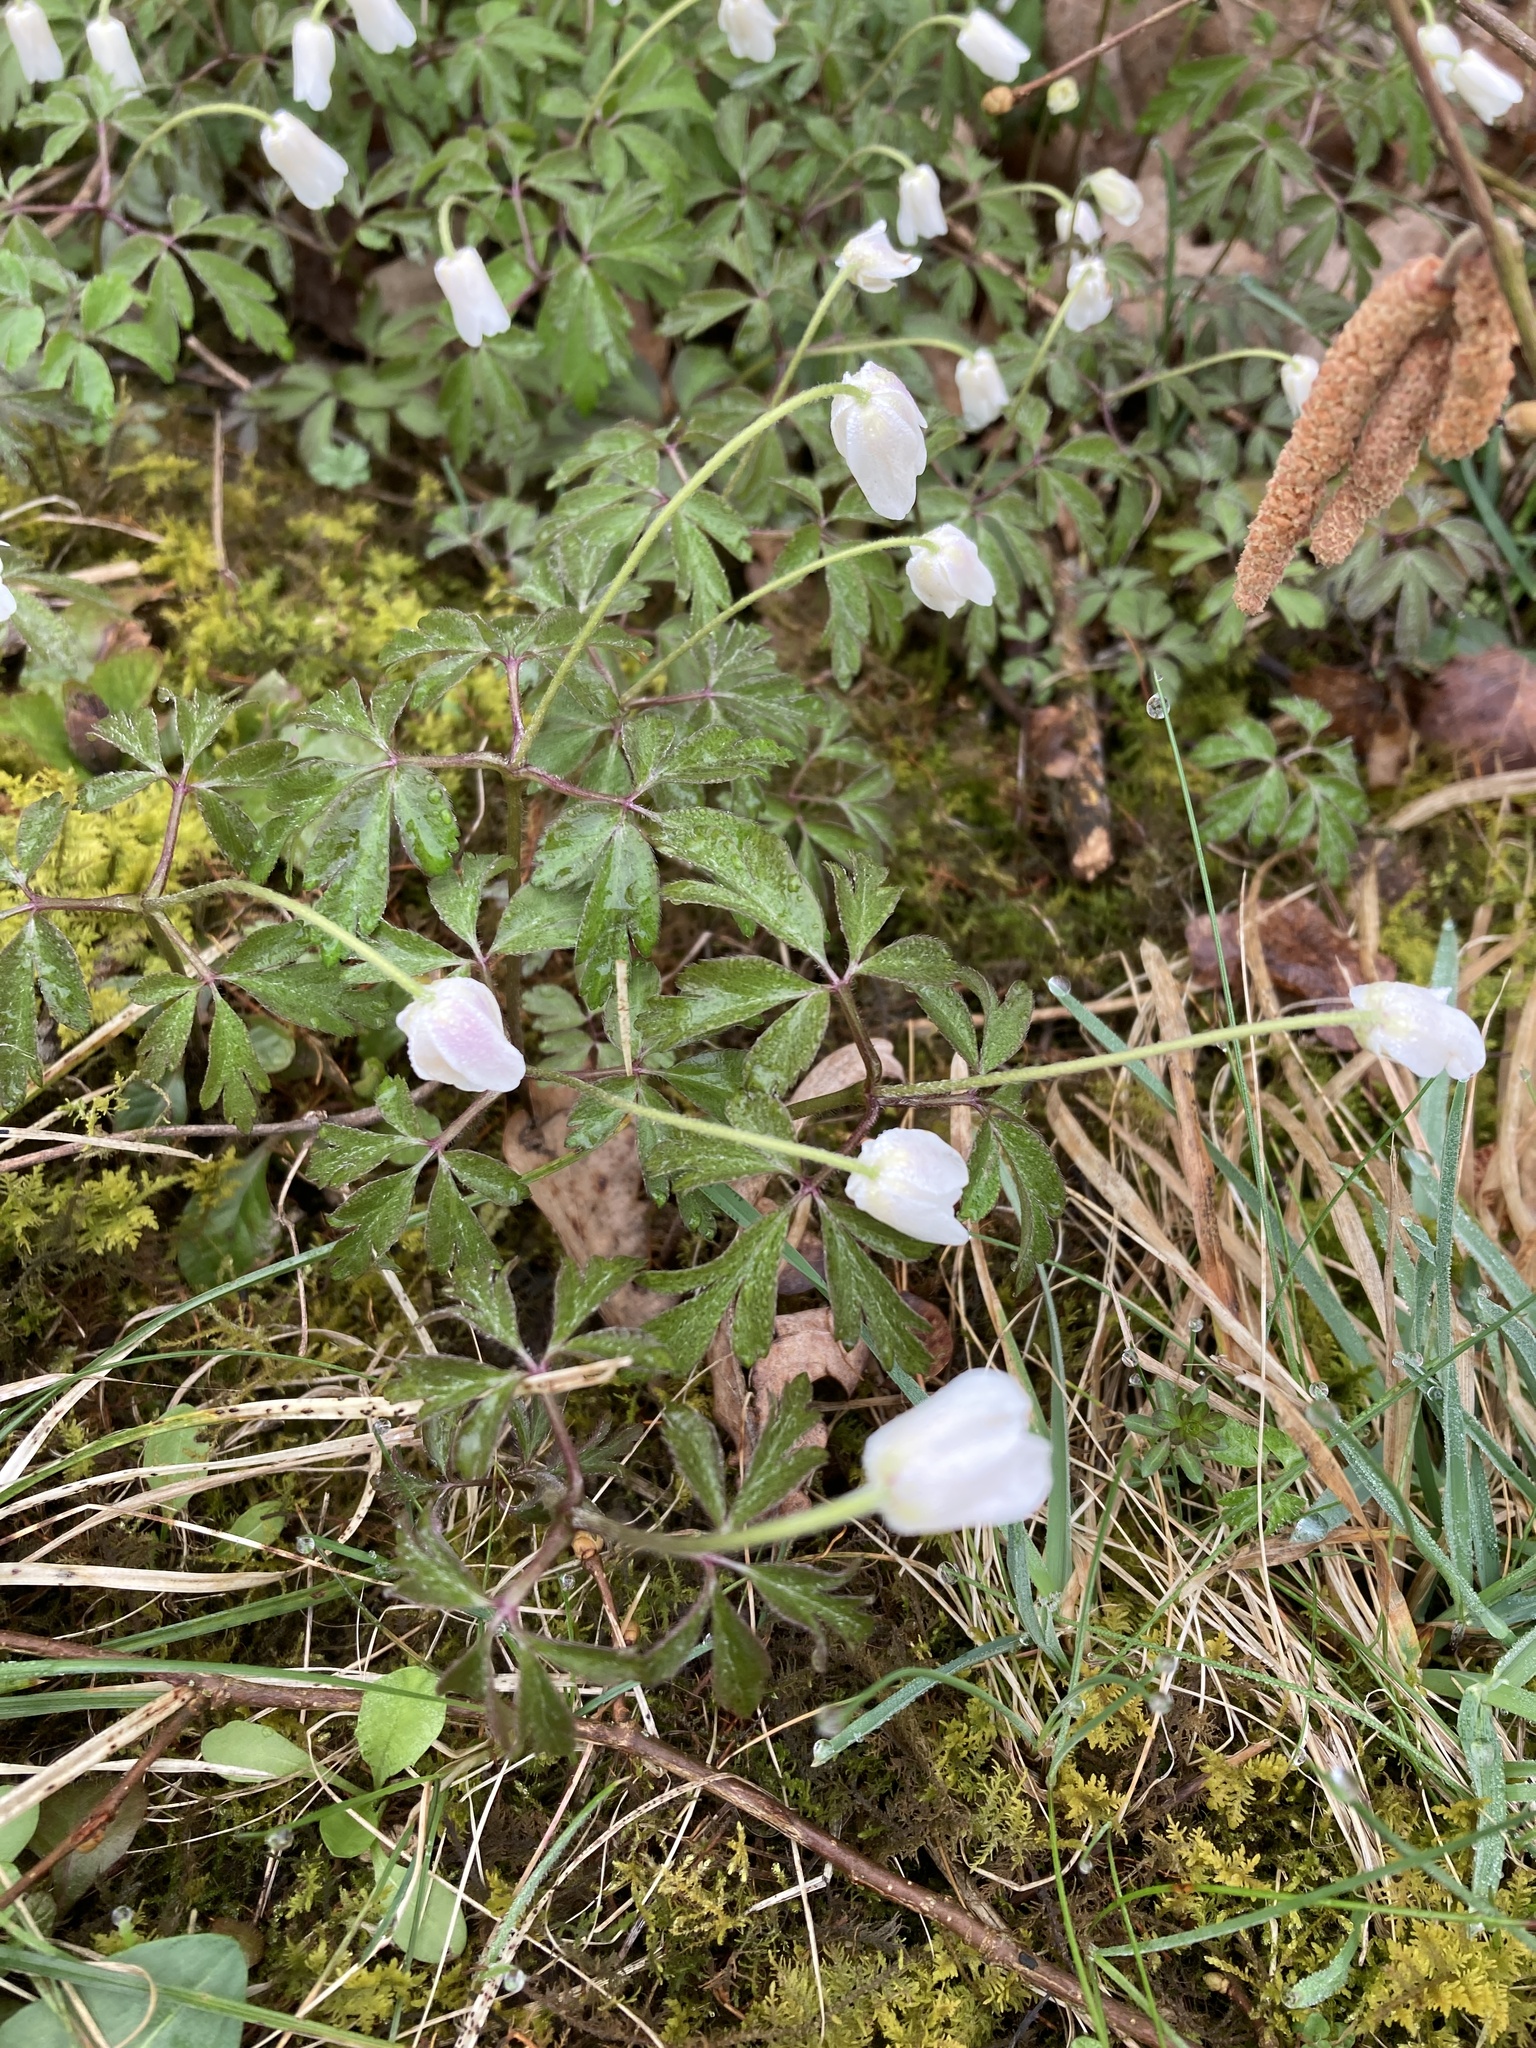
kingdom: Plantae
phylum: Tracheophyta
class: Magnoliopsida
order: Ranunculales
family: Ranunculaceae
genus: Anemone
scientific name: Anemone nemorosa
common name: Wood anemone
